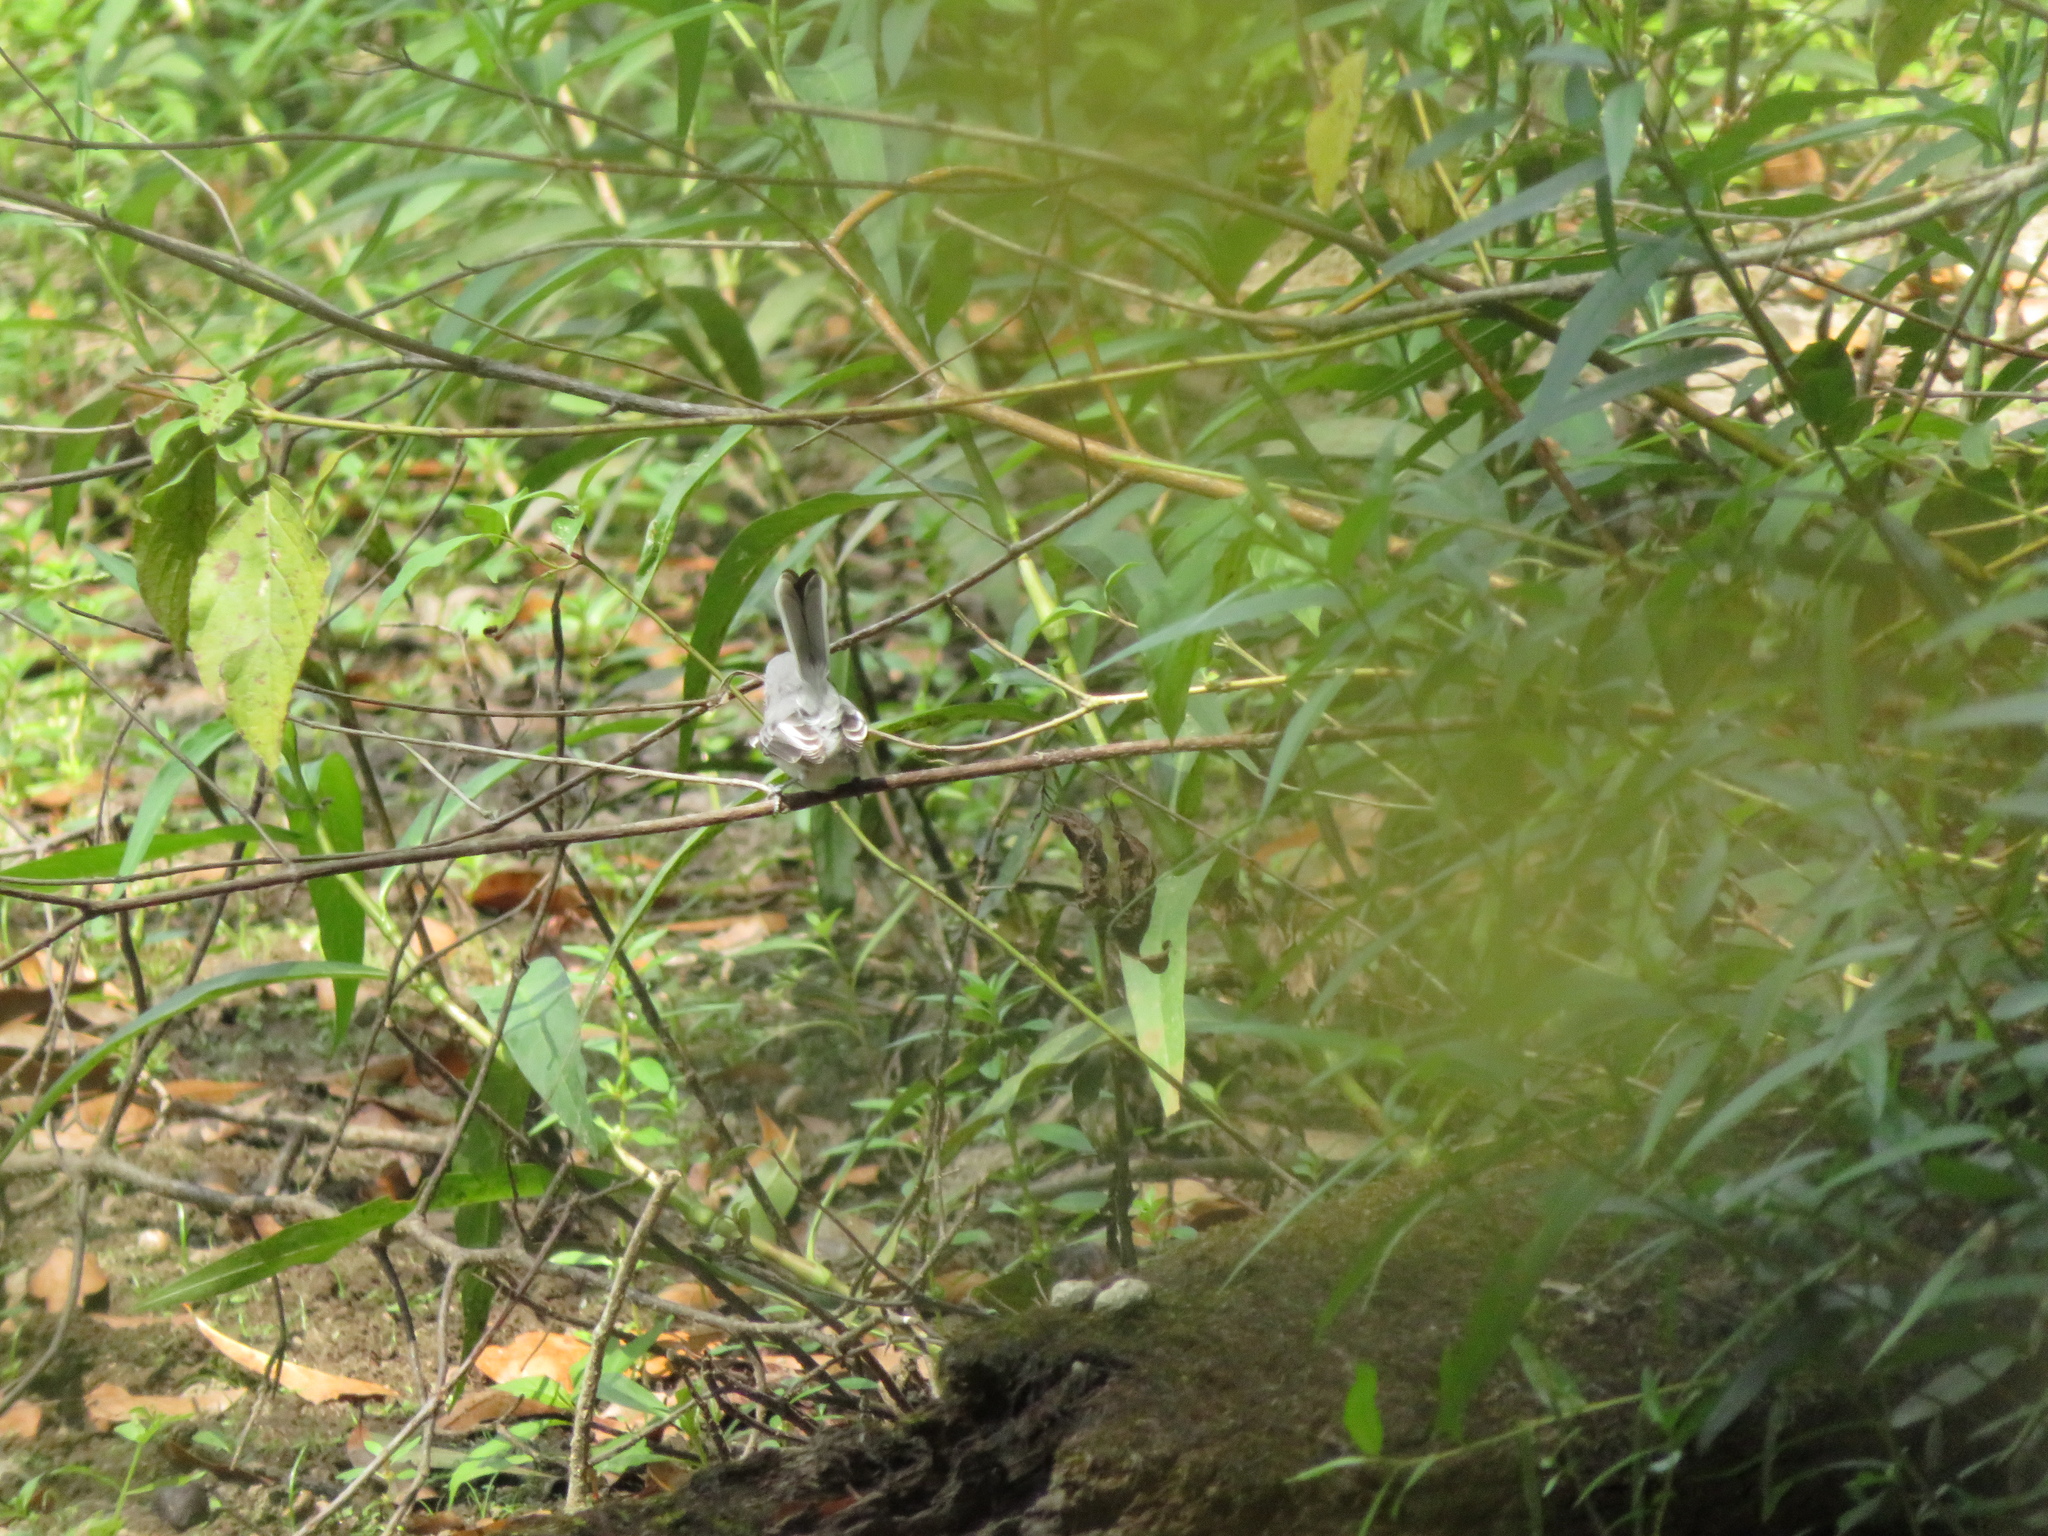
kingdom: Animalia
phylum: Chordata
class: Aves
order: Passeriformes
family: Polioptilidae
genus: Polioptila
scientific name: Polioptila caerulea
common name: Blue-gray gnatcatcher
